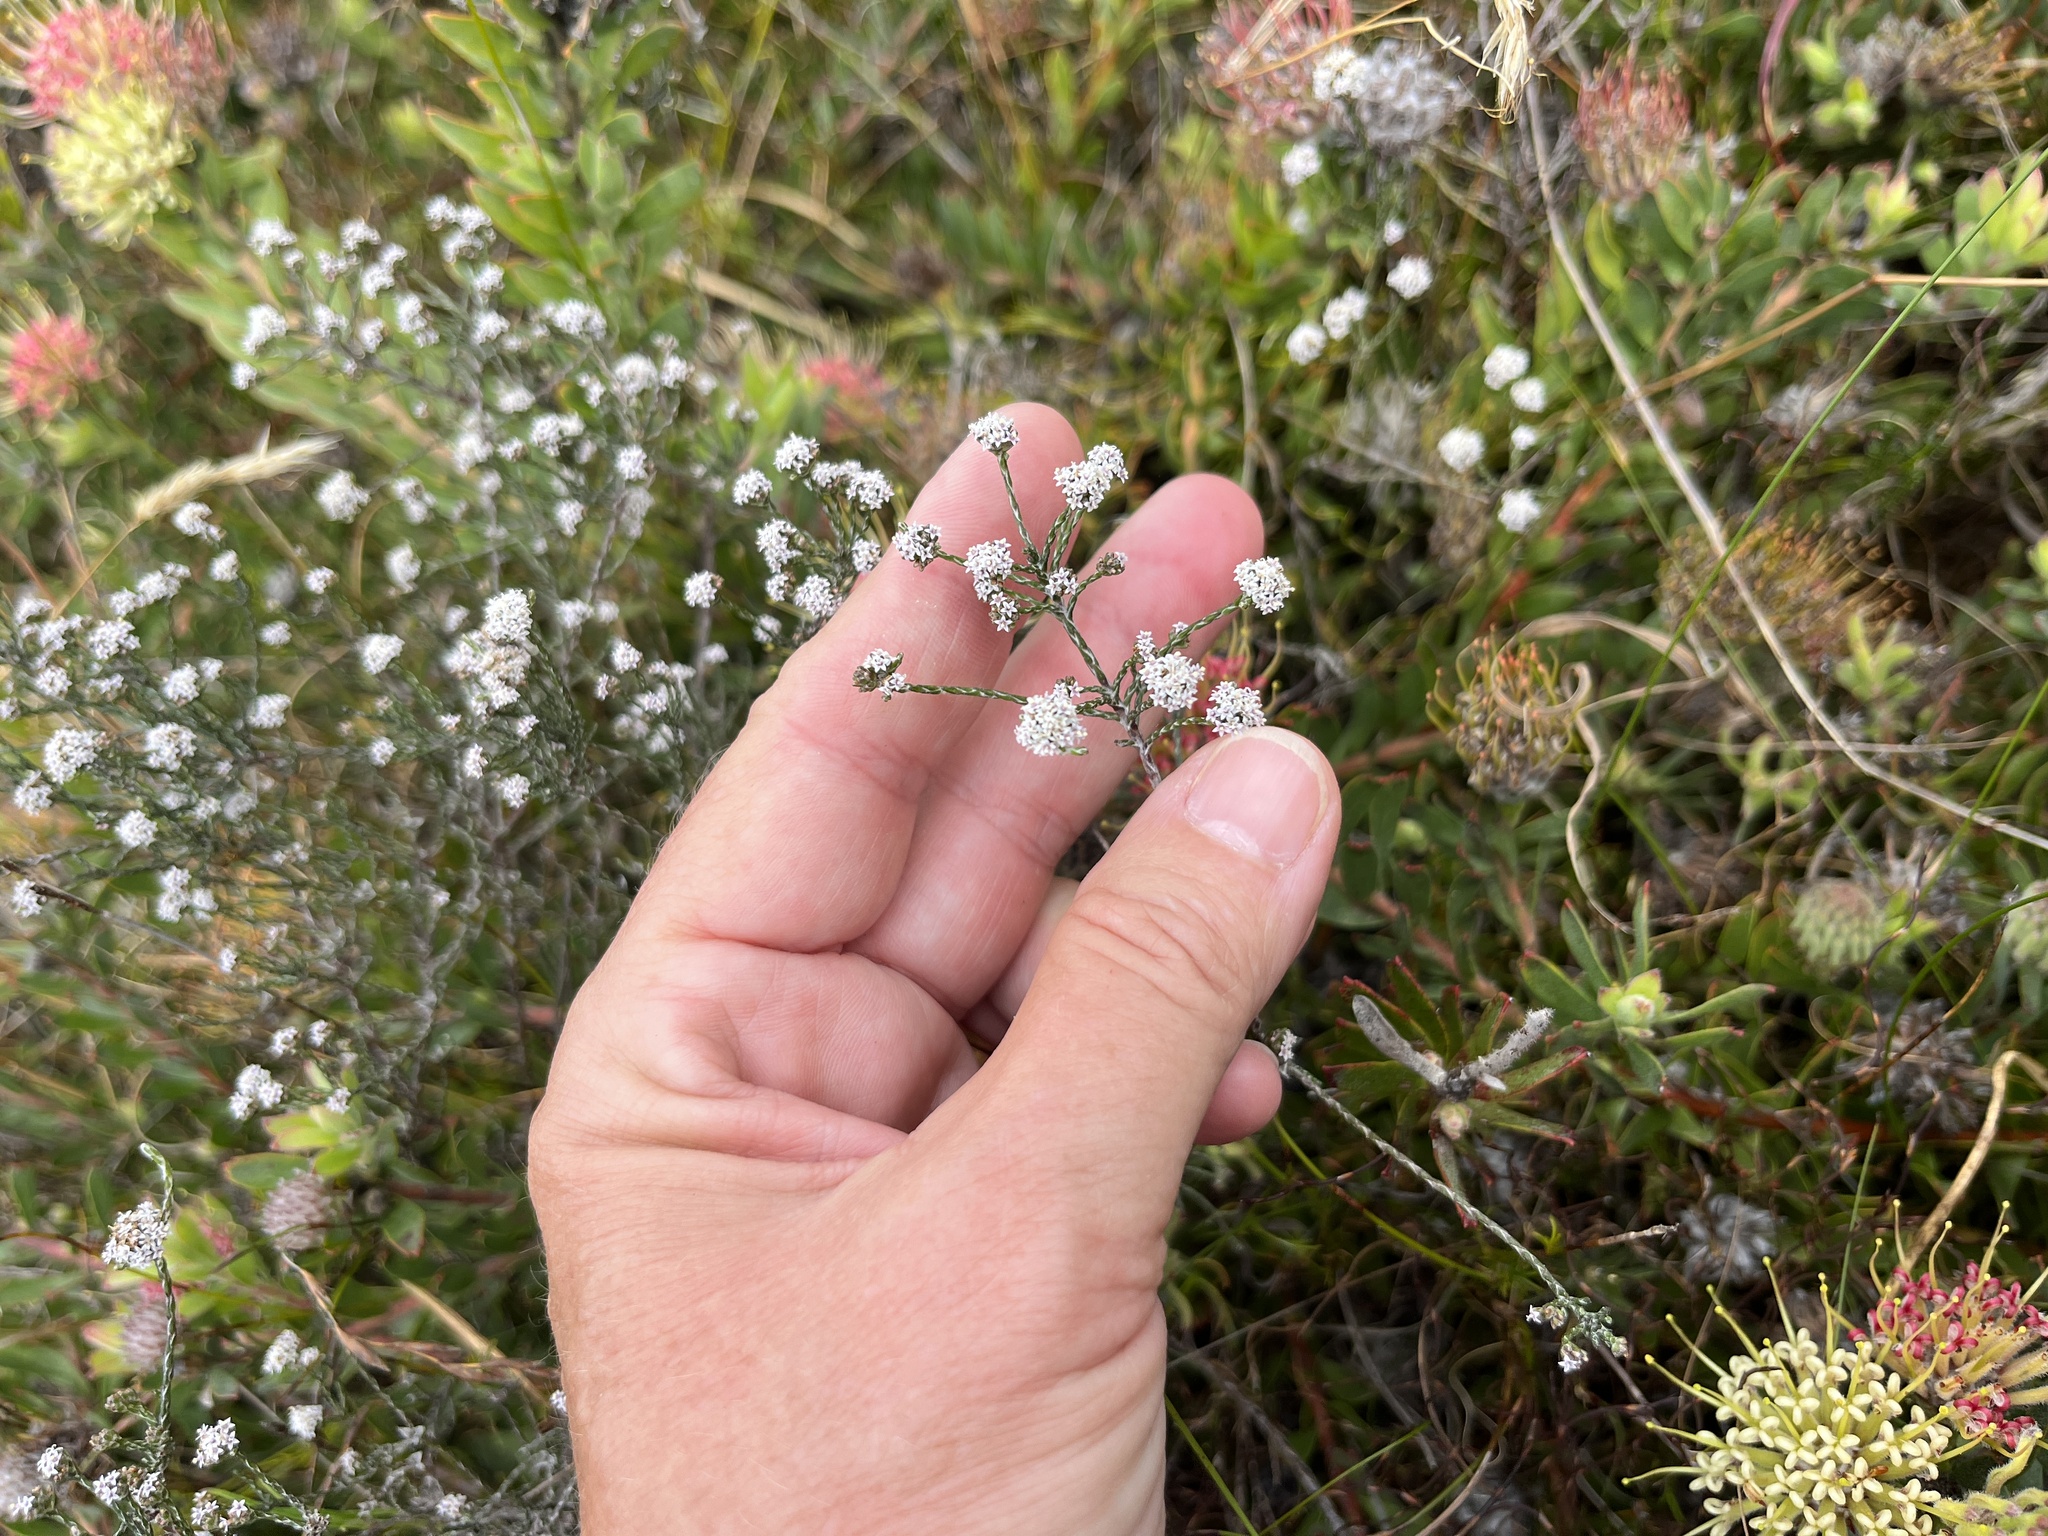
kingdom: Plantae
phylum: Tracheophyta
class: Magnoliopsida
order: Asterales
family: Asteraceae
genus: Stoebe
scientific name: Stoebe schultzii
